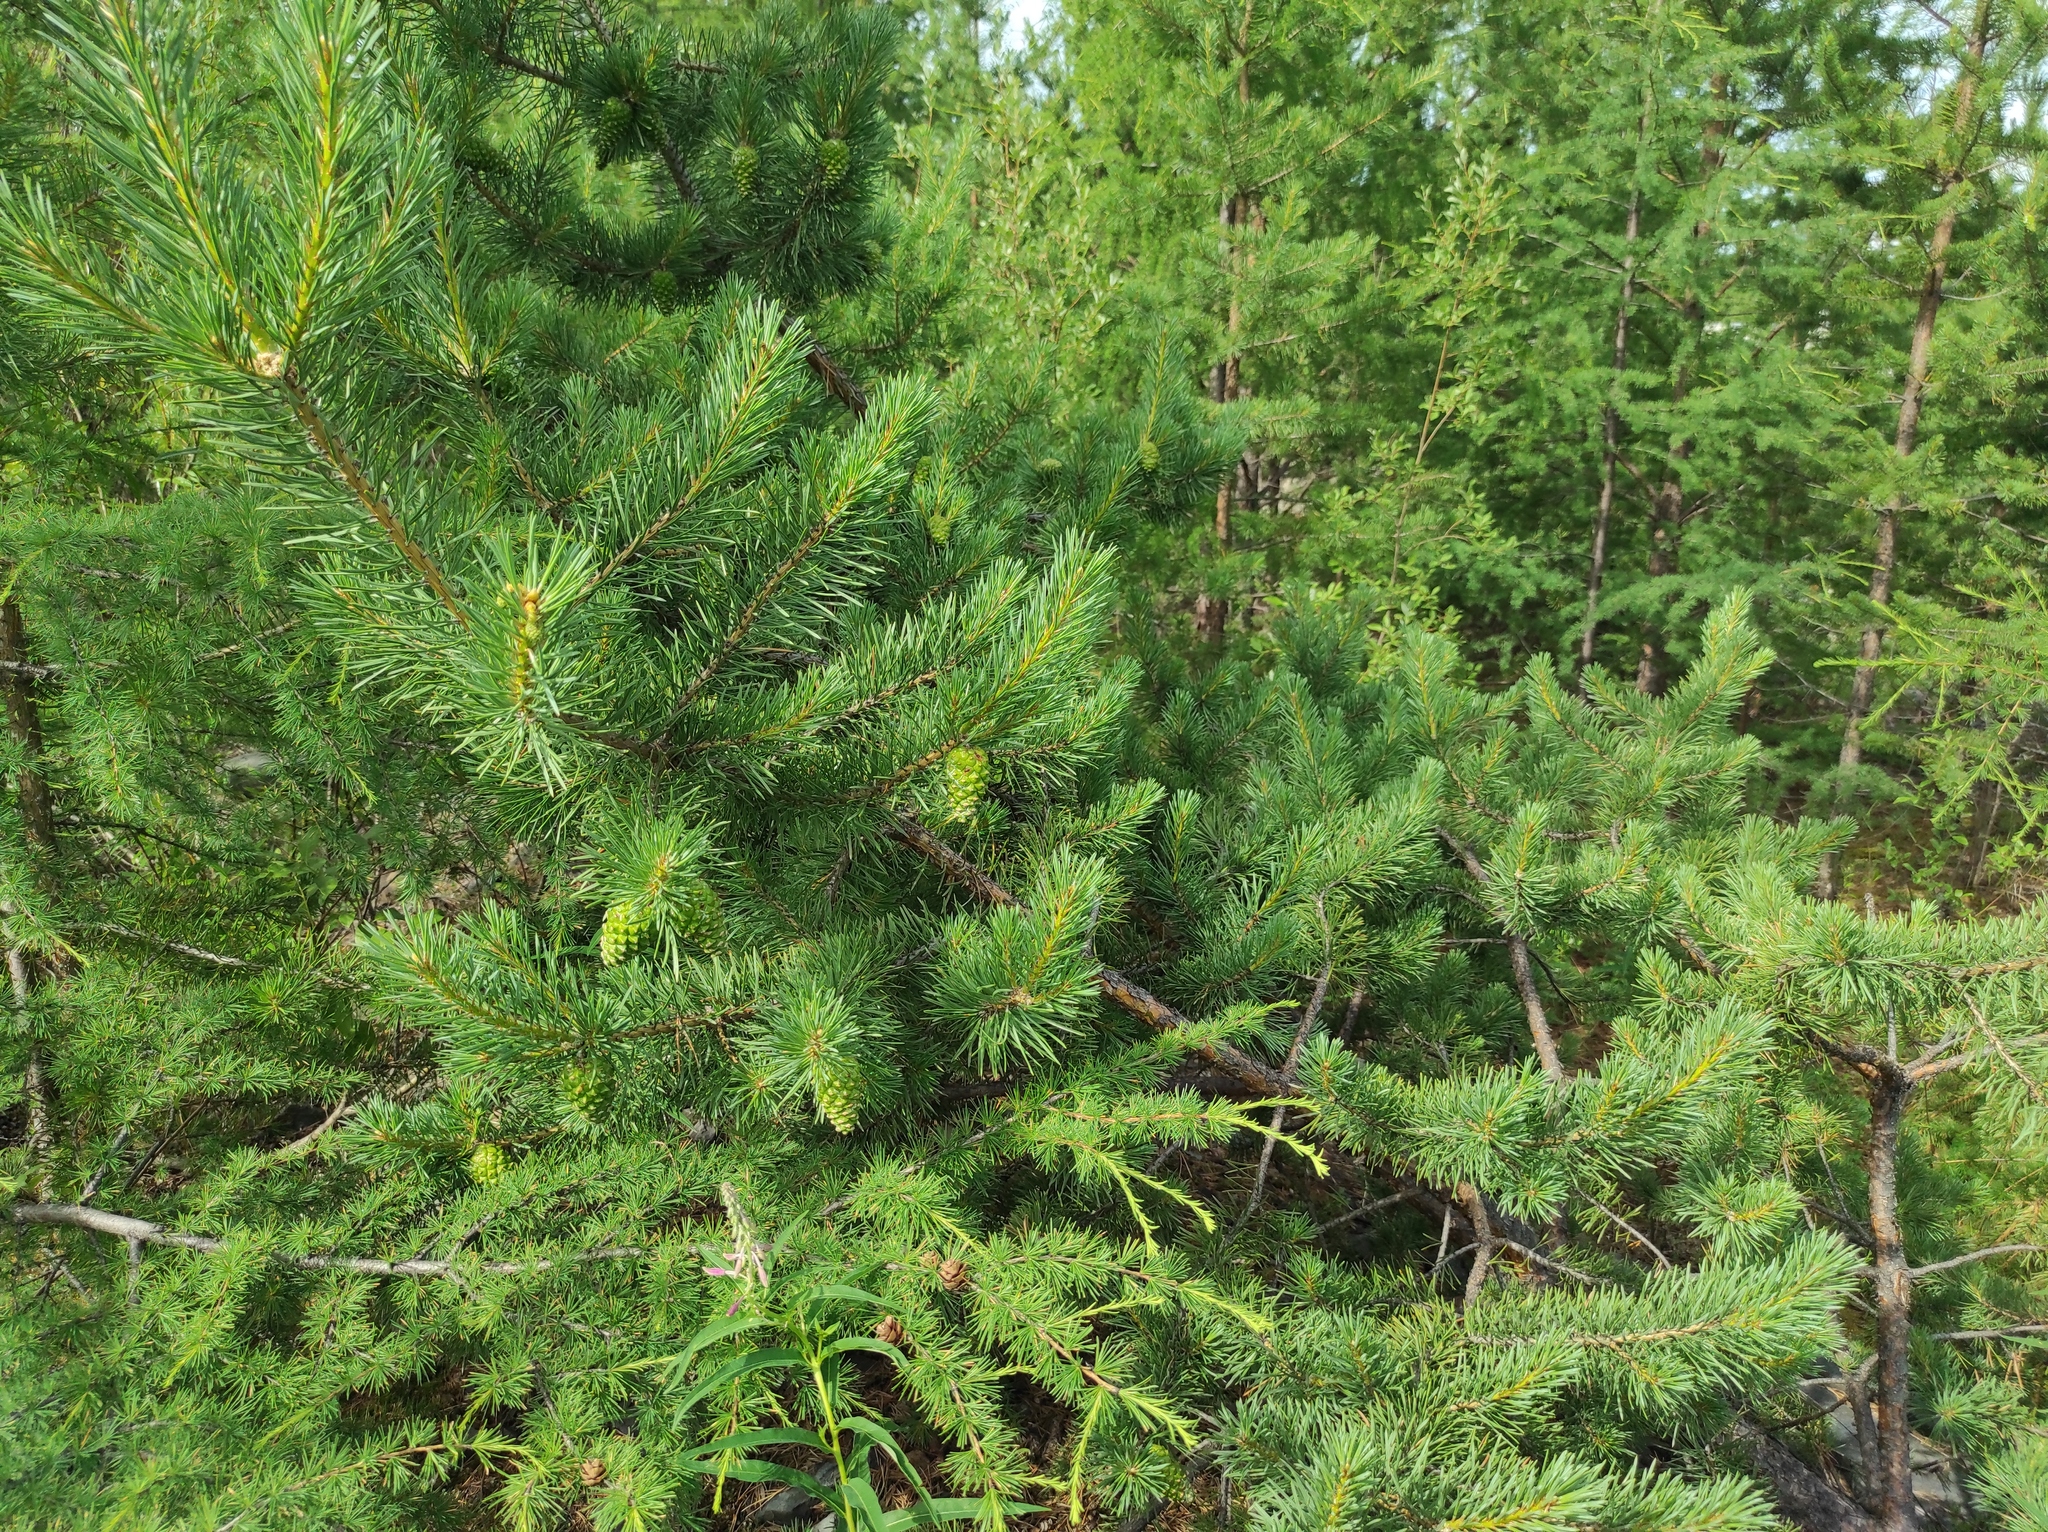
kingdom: Plantae
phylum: Tracheophyta
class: Pinopsida
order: Pinales
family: Pinaceae
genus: Pinus
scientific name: Pinus sylvestris
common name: Scots pine
